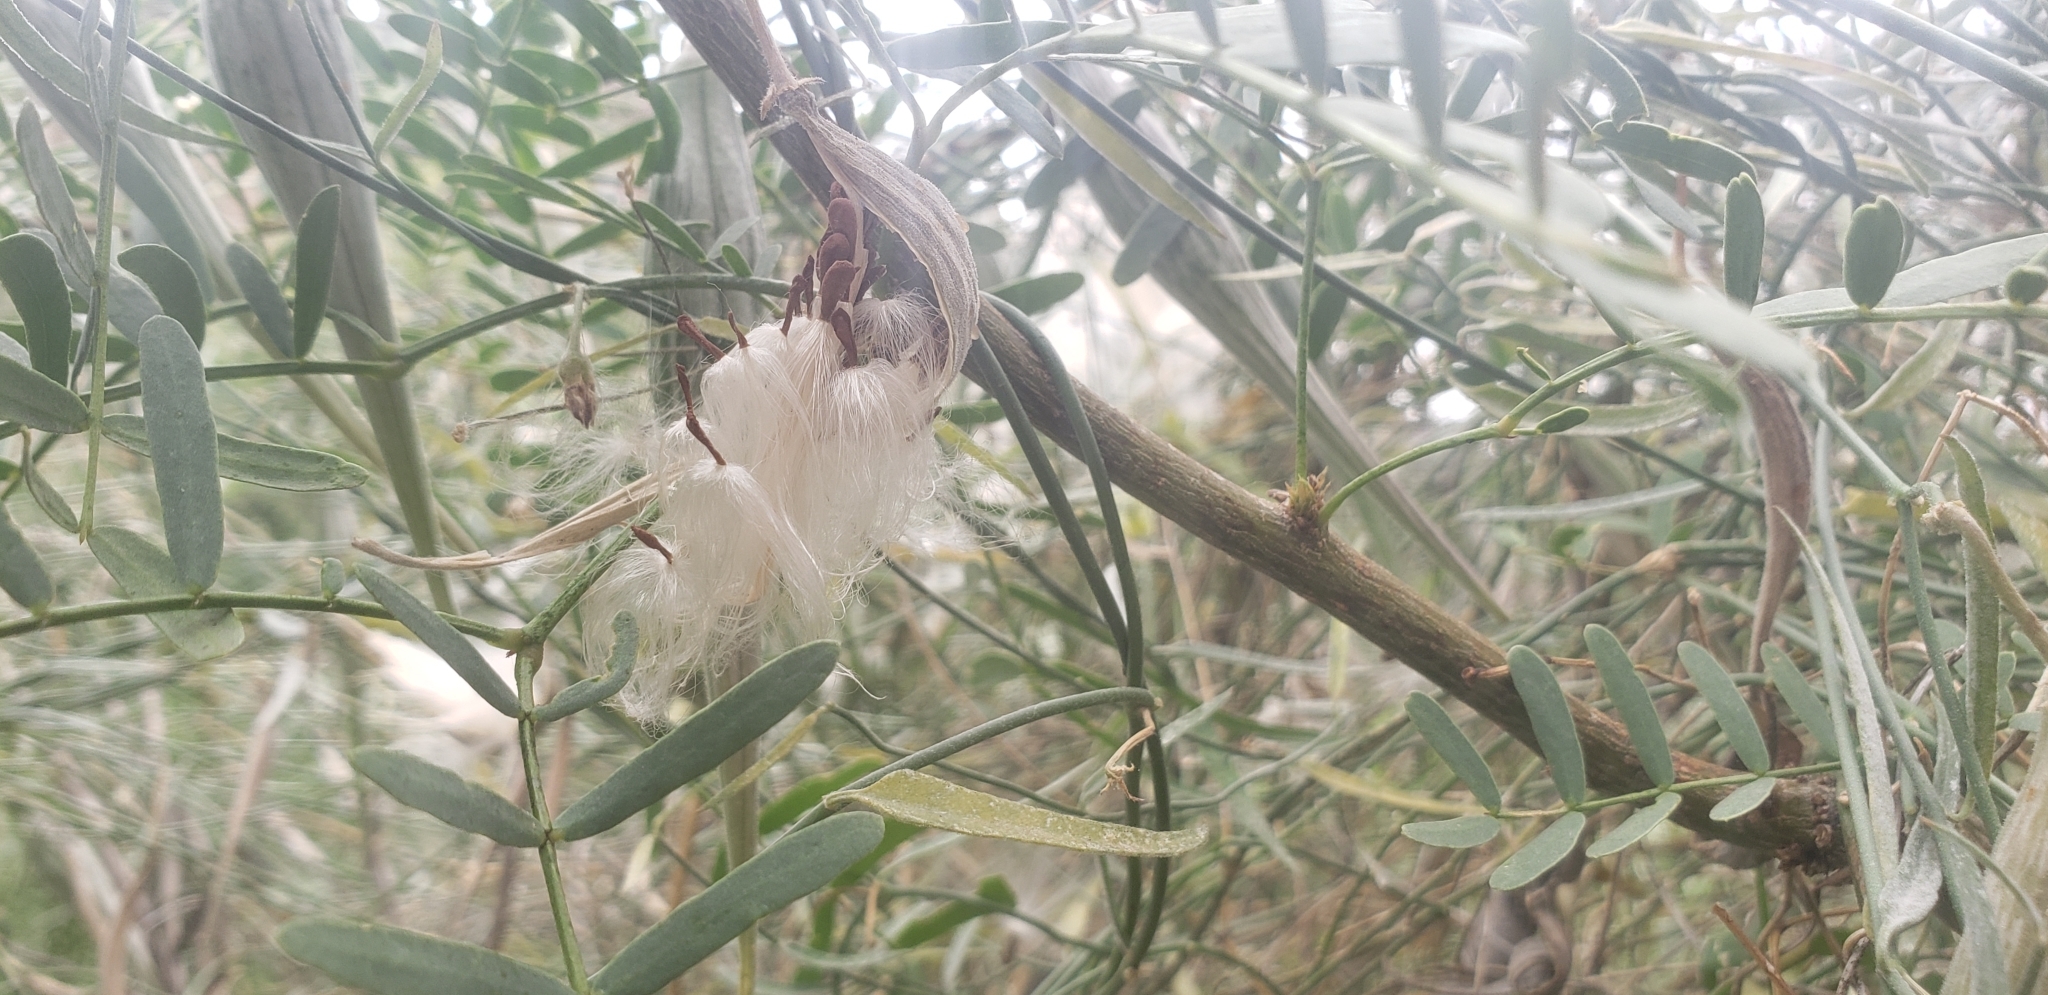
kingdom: Plantae
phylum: Tracheophyta
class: Magnoliopsida
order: Gentianales
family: Apocynaceae
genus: Funastrum
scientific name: Funastrum heterophyllum
